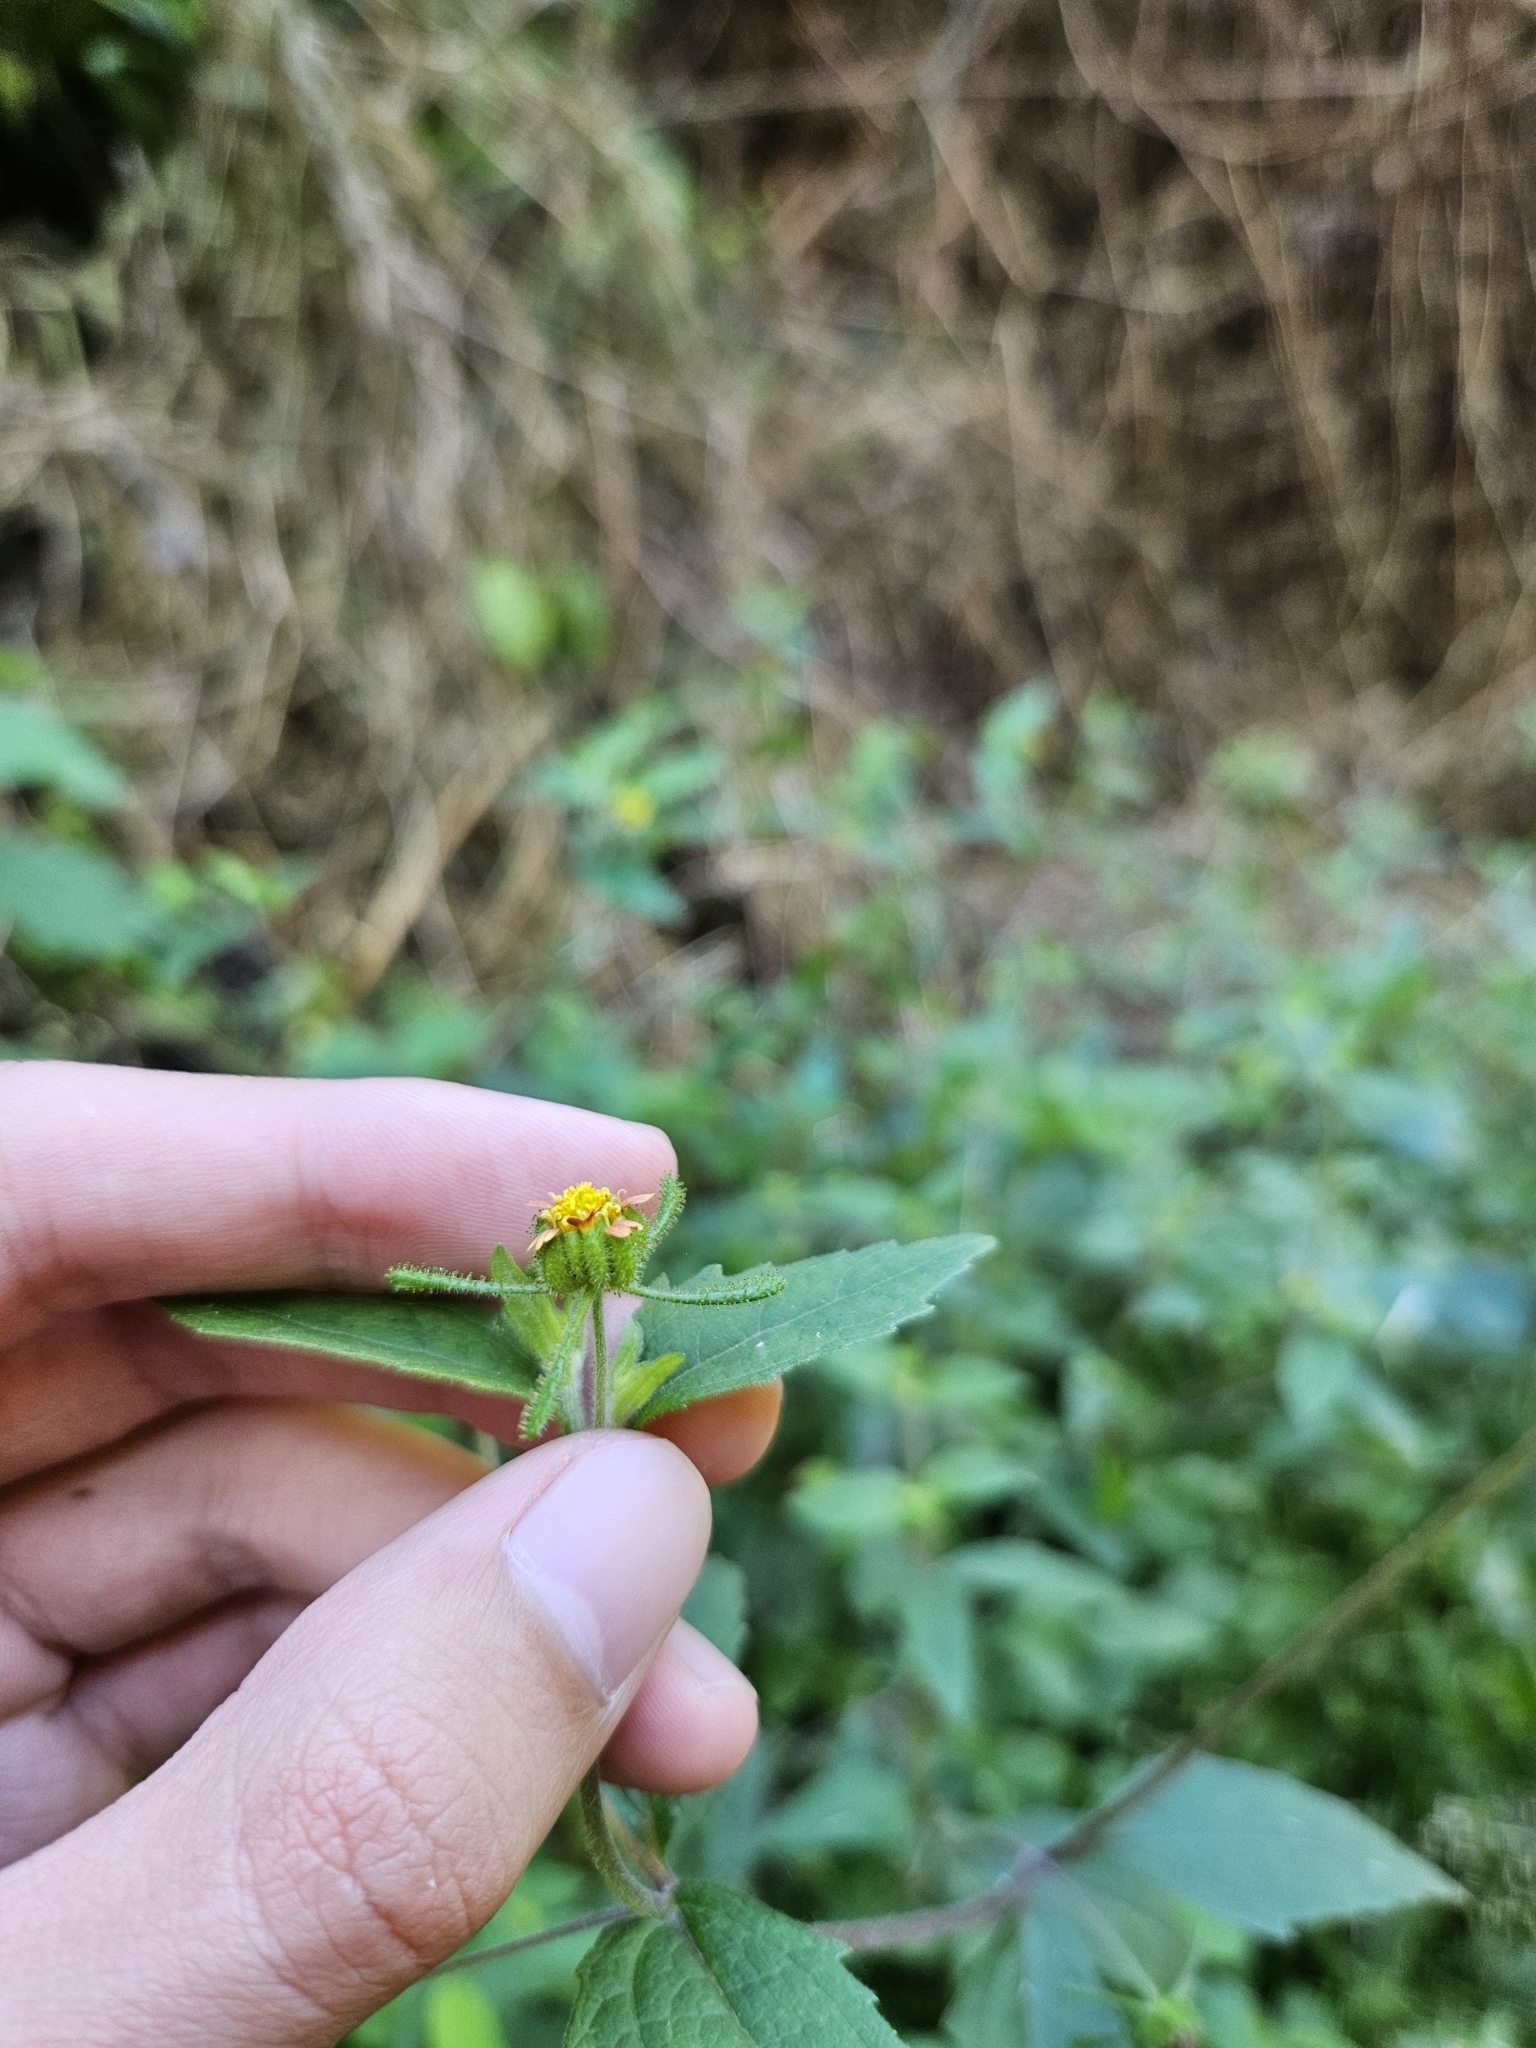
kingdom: Plantae
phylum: Tracheophyta
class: Magnoliopsida
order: Asterales
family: Asteraceae
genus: Sigesbeckia
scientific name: Sigesbeckia orientalis
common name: Eastern st paul's-wort
